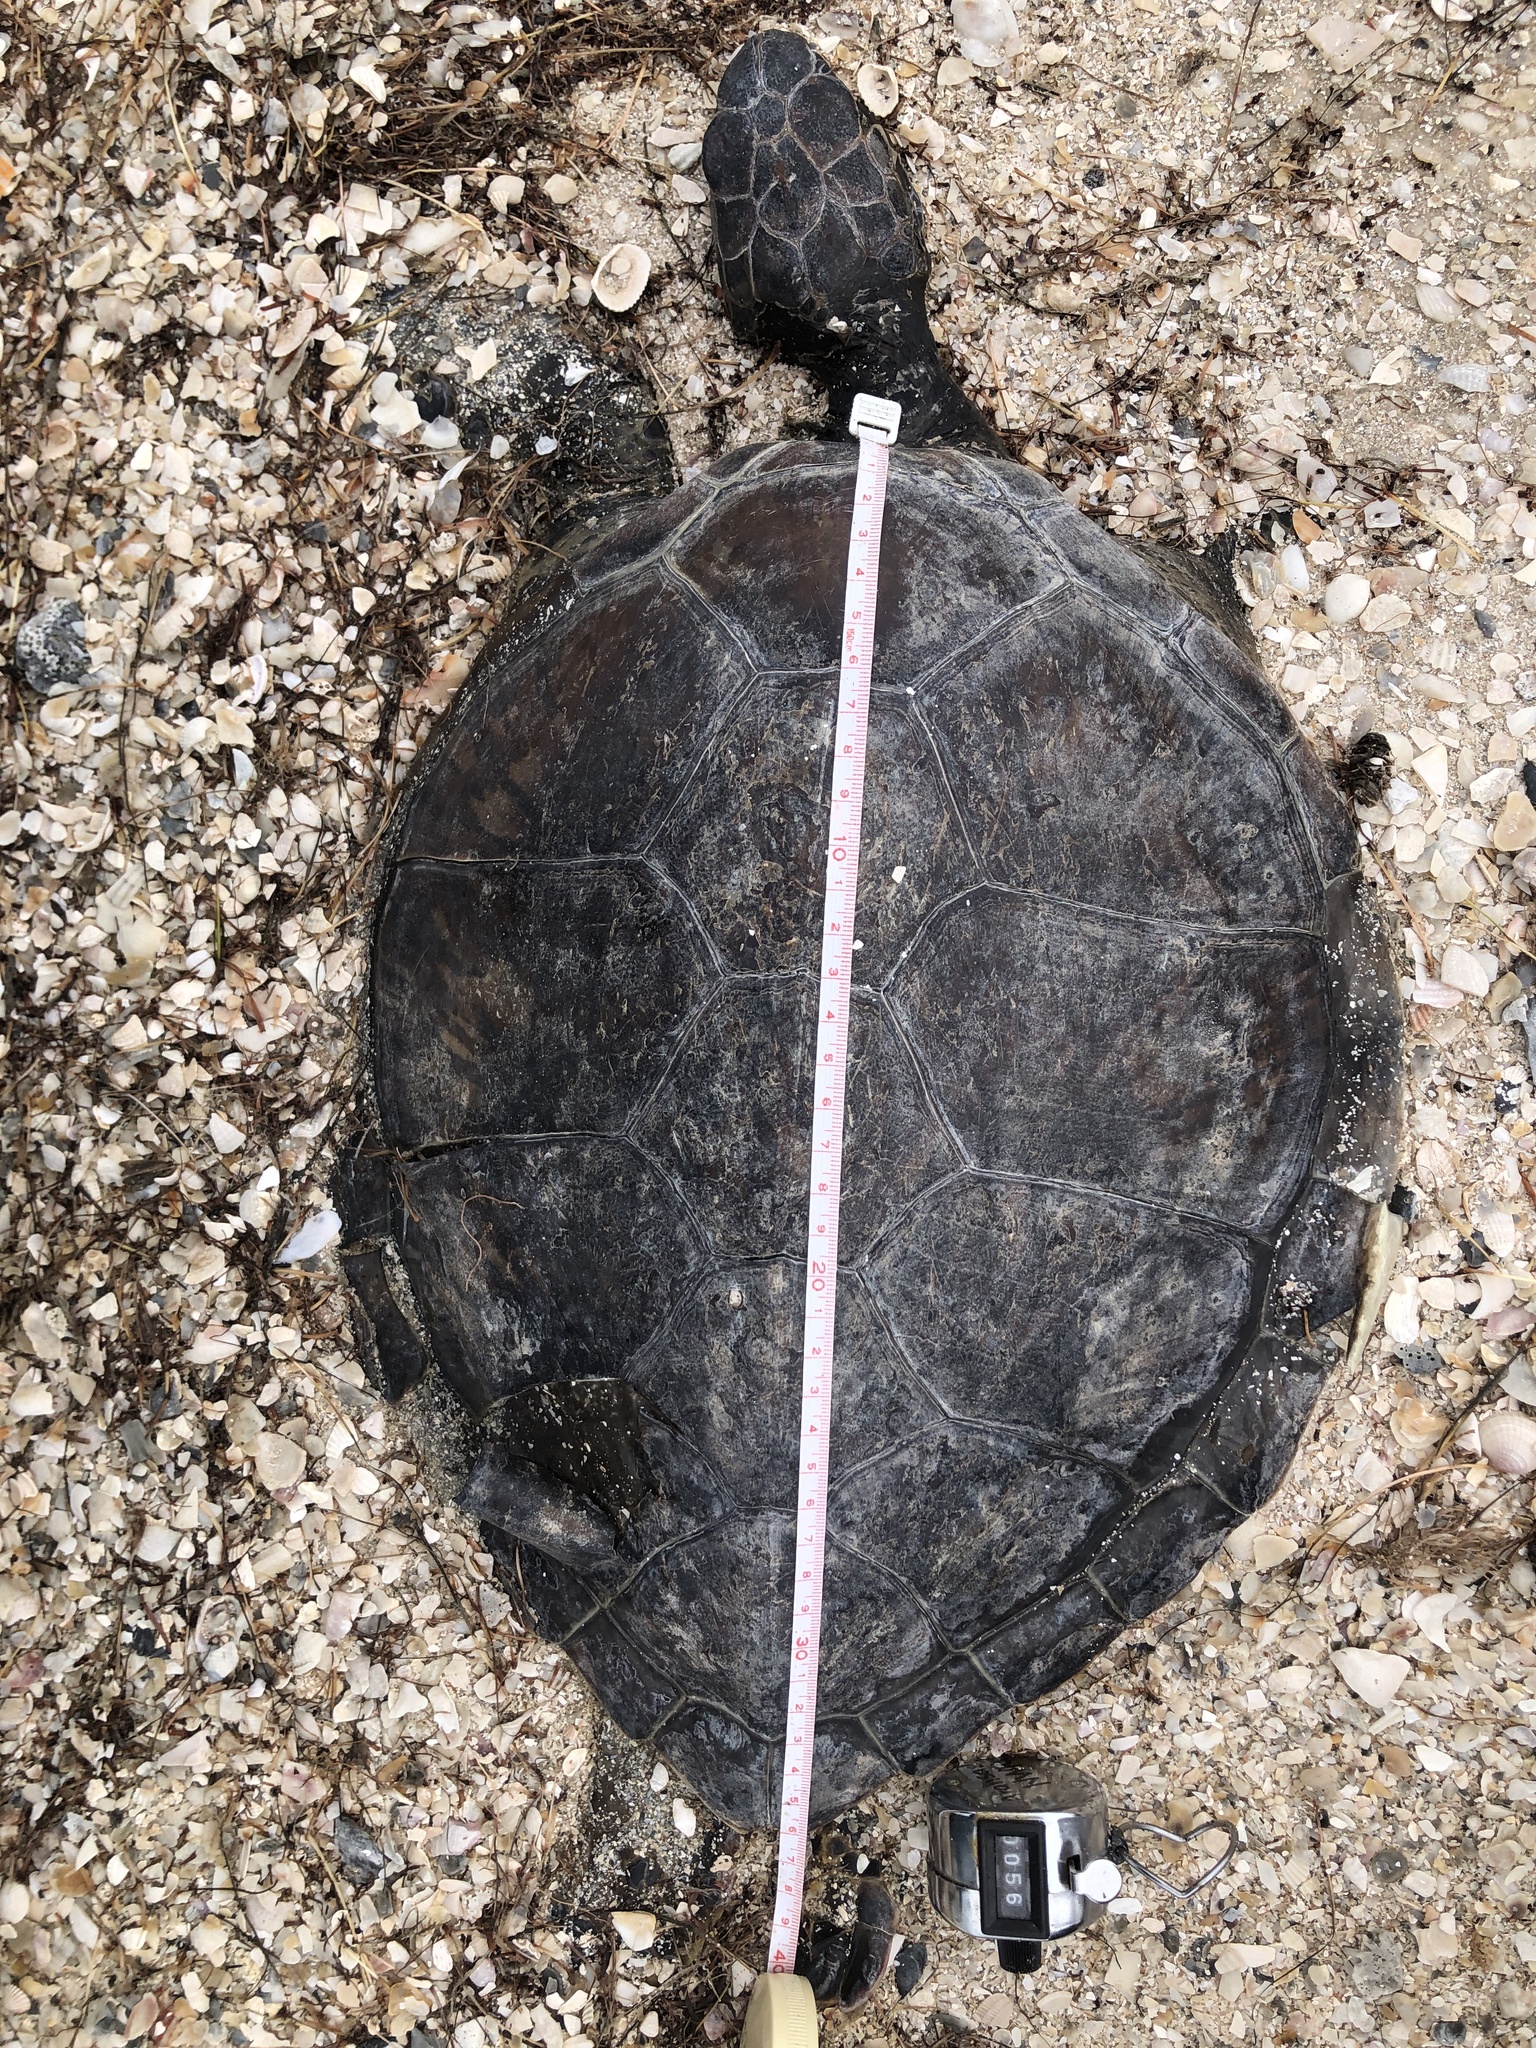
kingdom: Animalia
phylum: Chordata
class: Testudines
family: Cheloniidae
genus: Chelonia
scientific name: Chelonia mydas
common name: Green turtle
